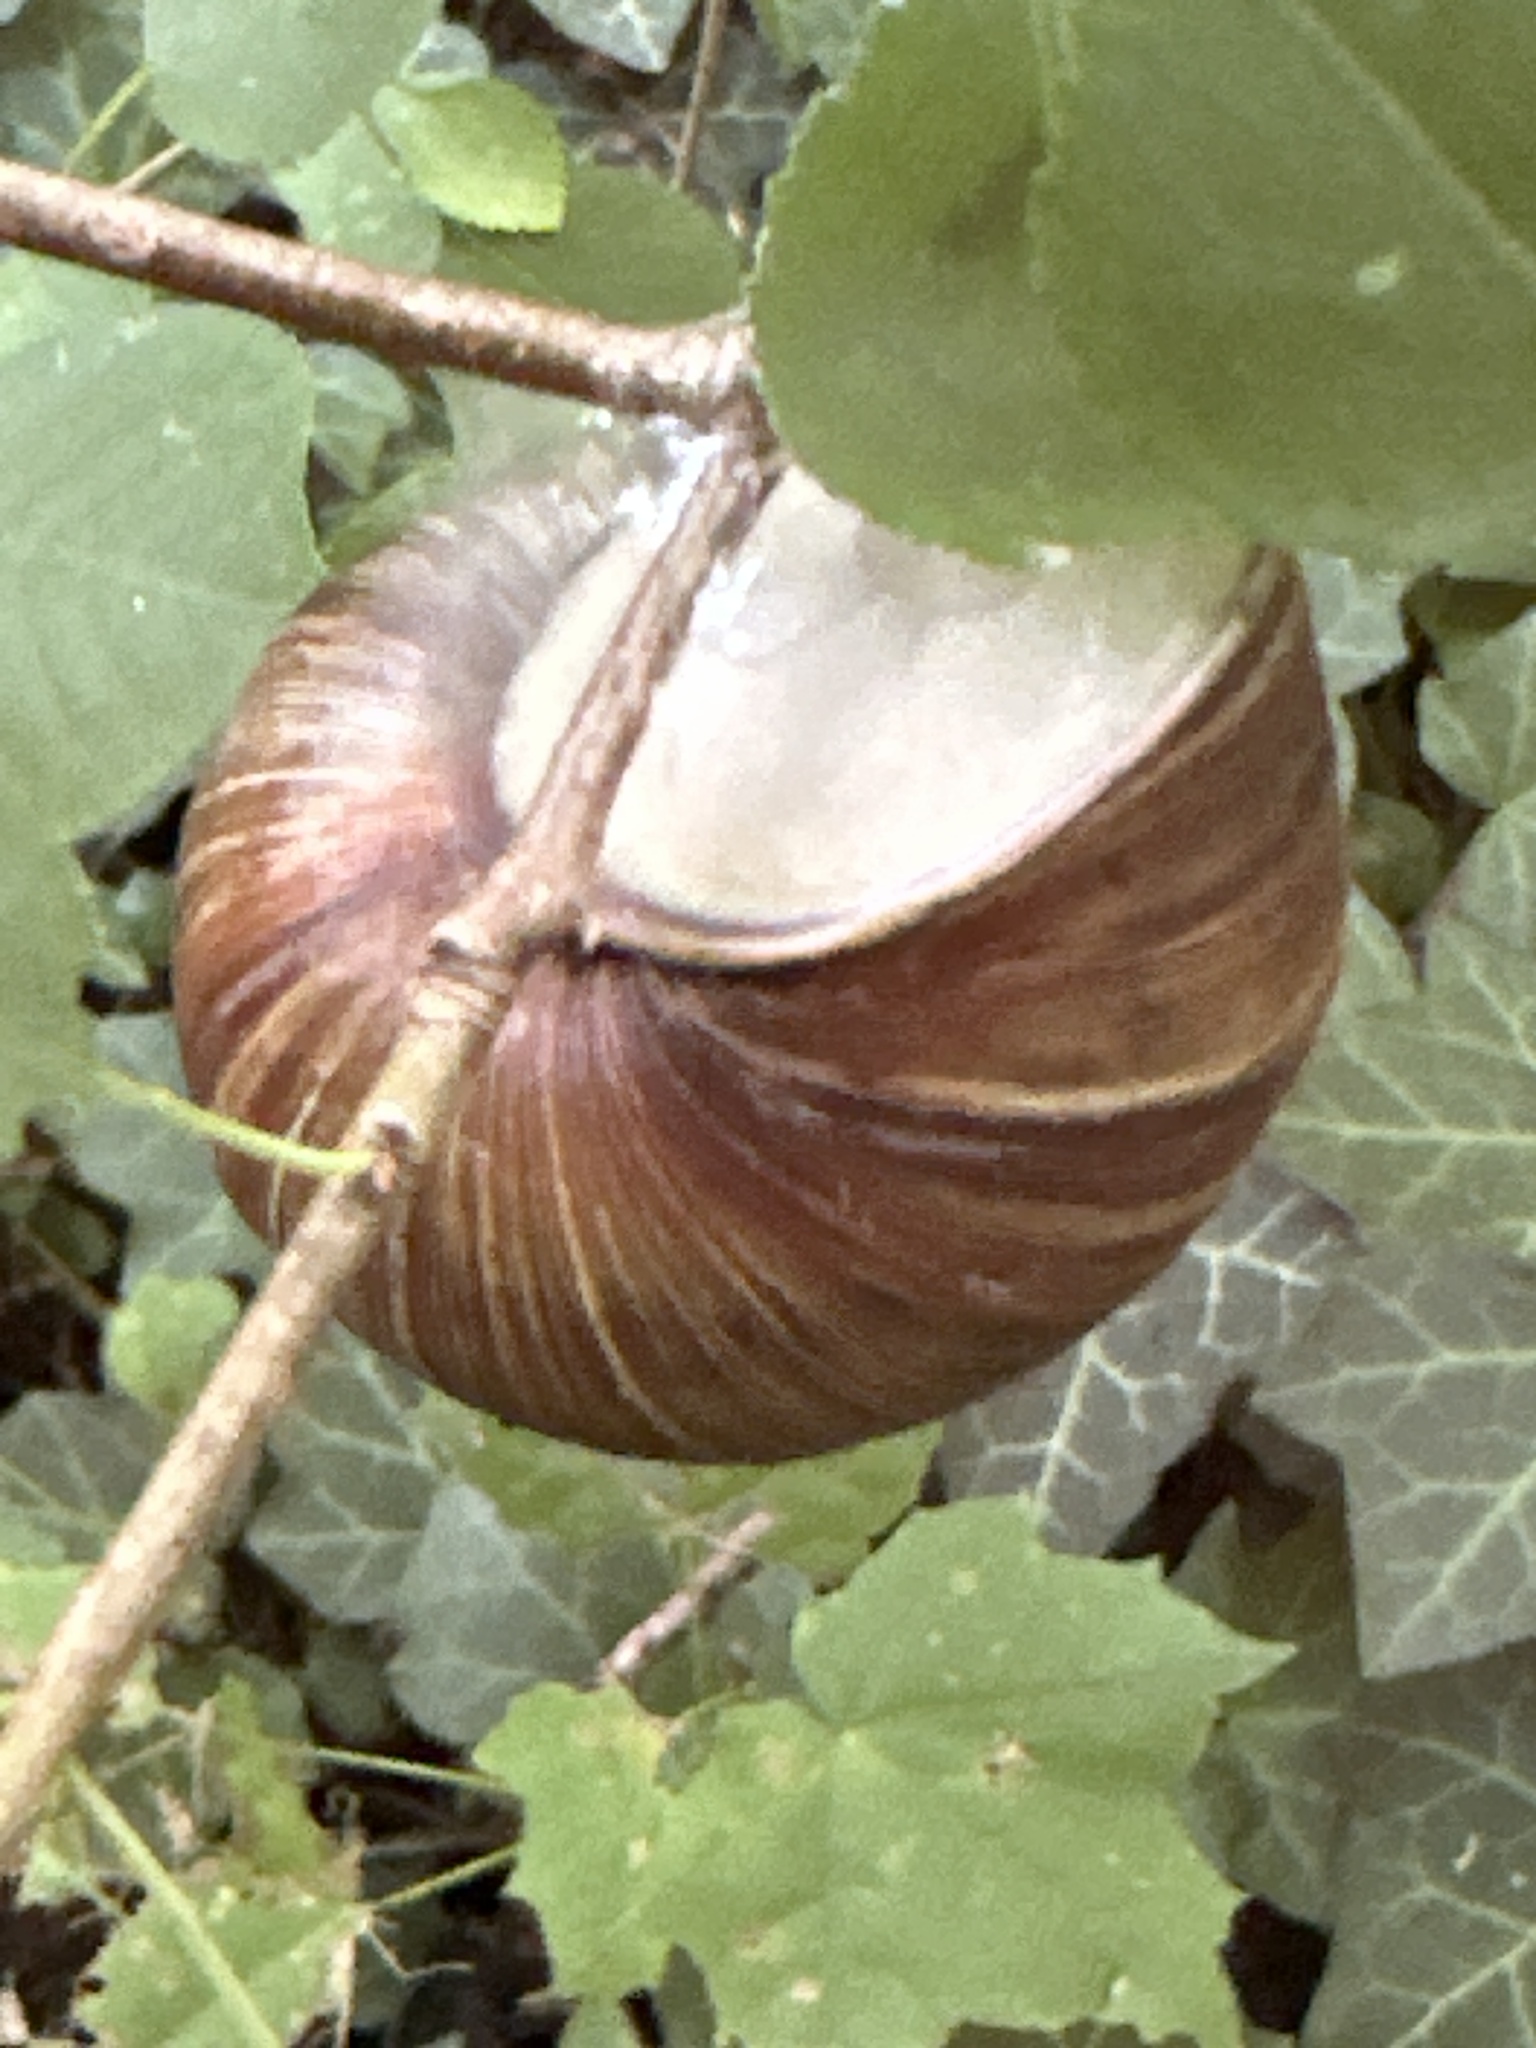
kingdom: Animalia
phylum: Mollusca
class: Gastropoda
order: Stylommatophora
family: Helicidae
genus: Helix
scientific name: Helix pomatia
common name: Roman snail
